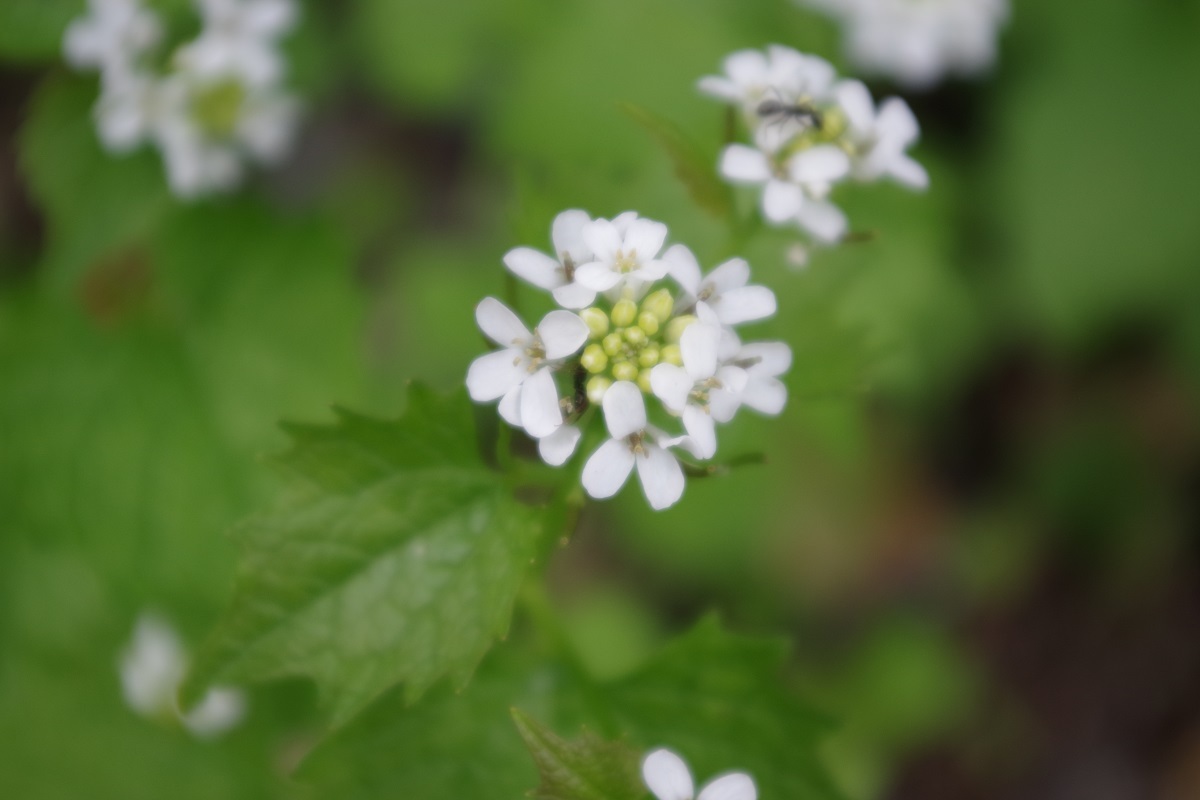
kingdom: Plantae
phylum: Tracheophyta
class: Magnoliopsida
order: Brassicales
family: Brassicaceae
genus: Alliaria
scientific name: Alliaria petiolata
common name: Garlic mustard
